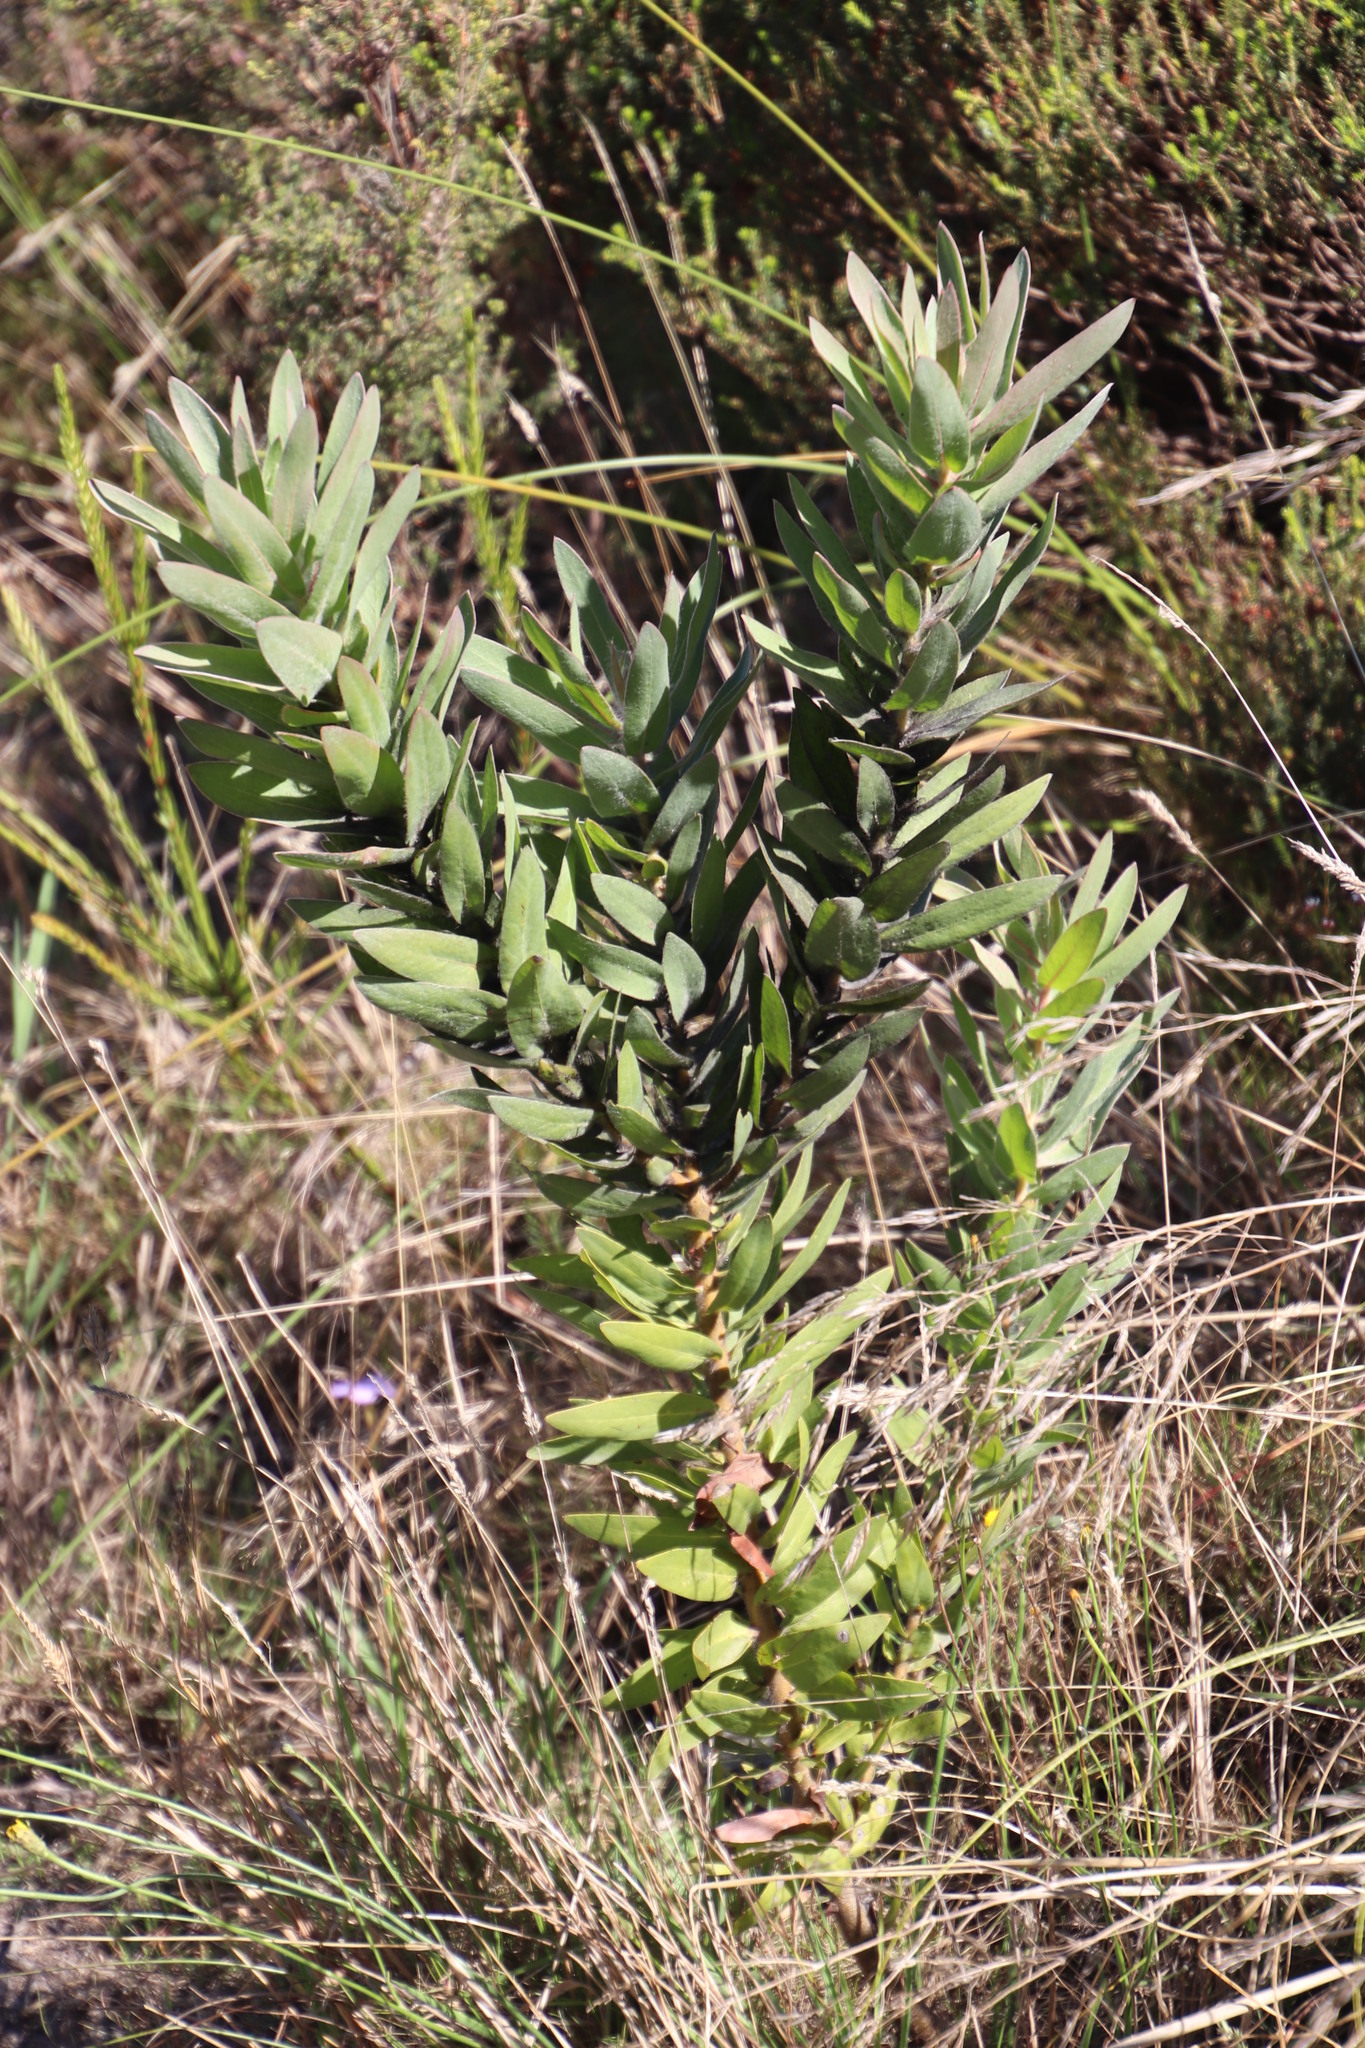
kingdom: Plantae
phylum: Tracheophyta
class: Magnoliopsida
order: Proteales
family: Proteaceae
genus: Protea
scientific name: Protea coronata
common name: Green sugarbush
